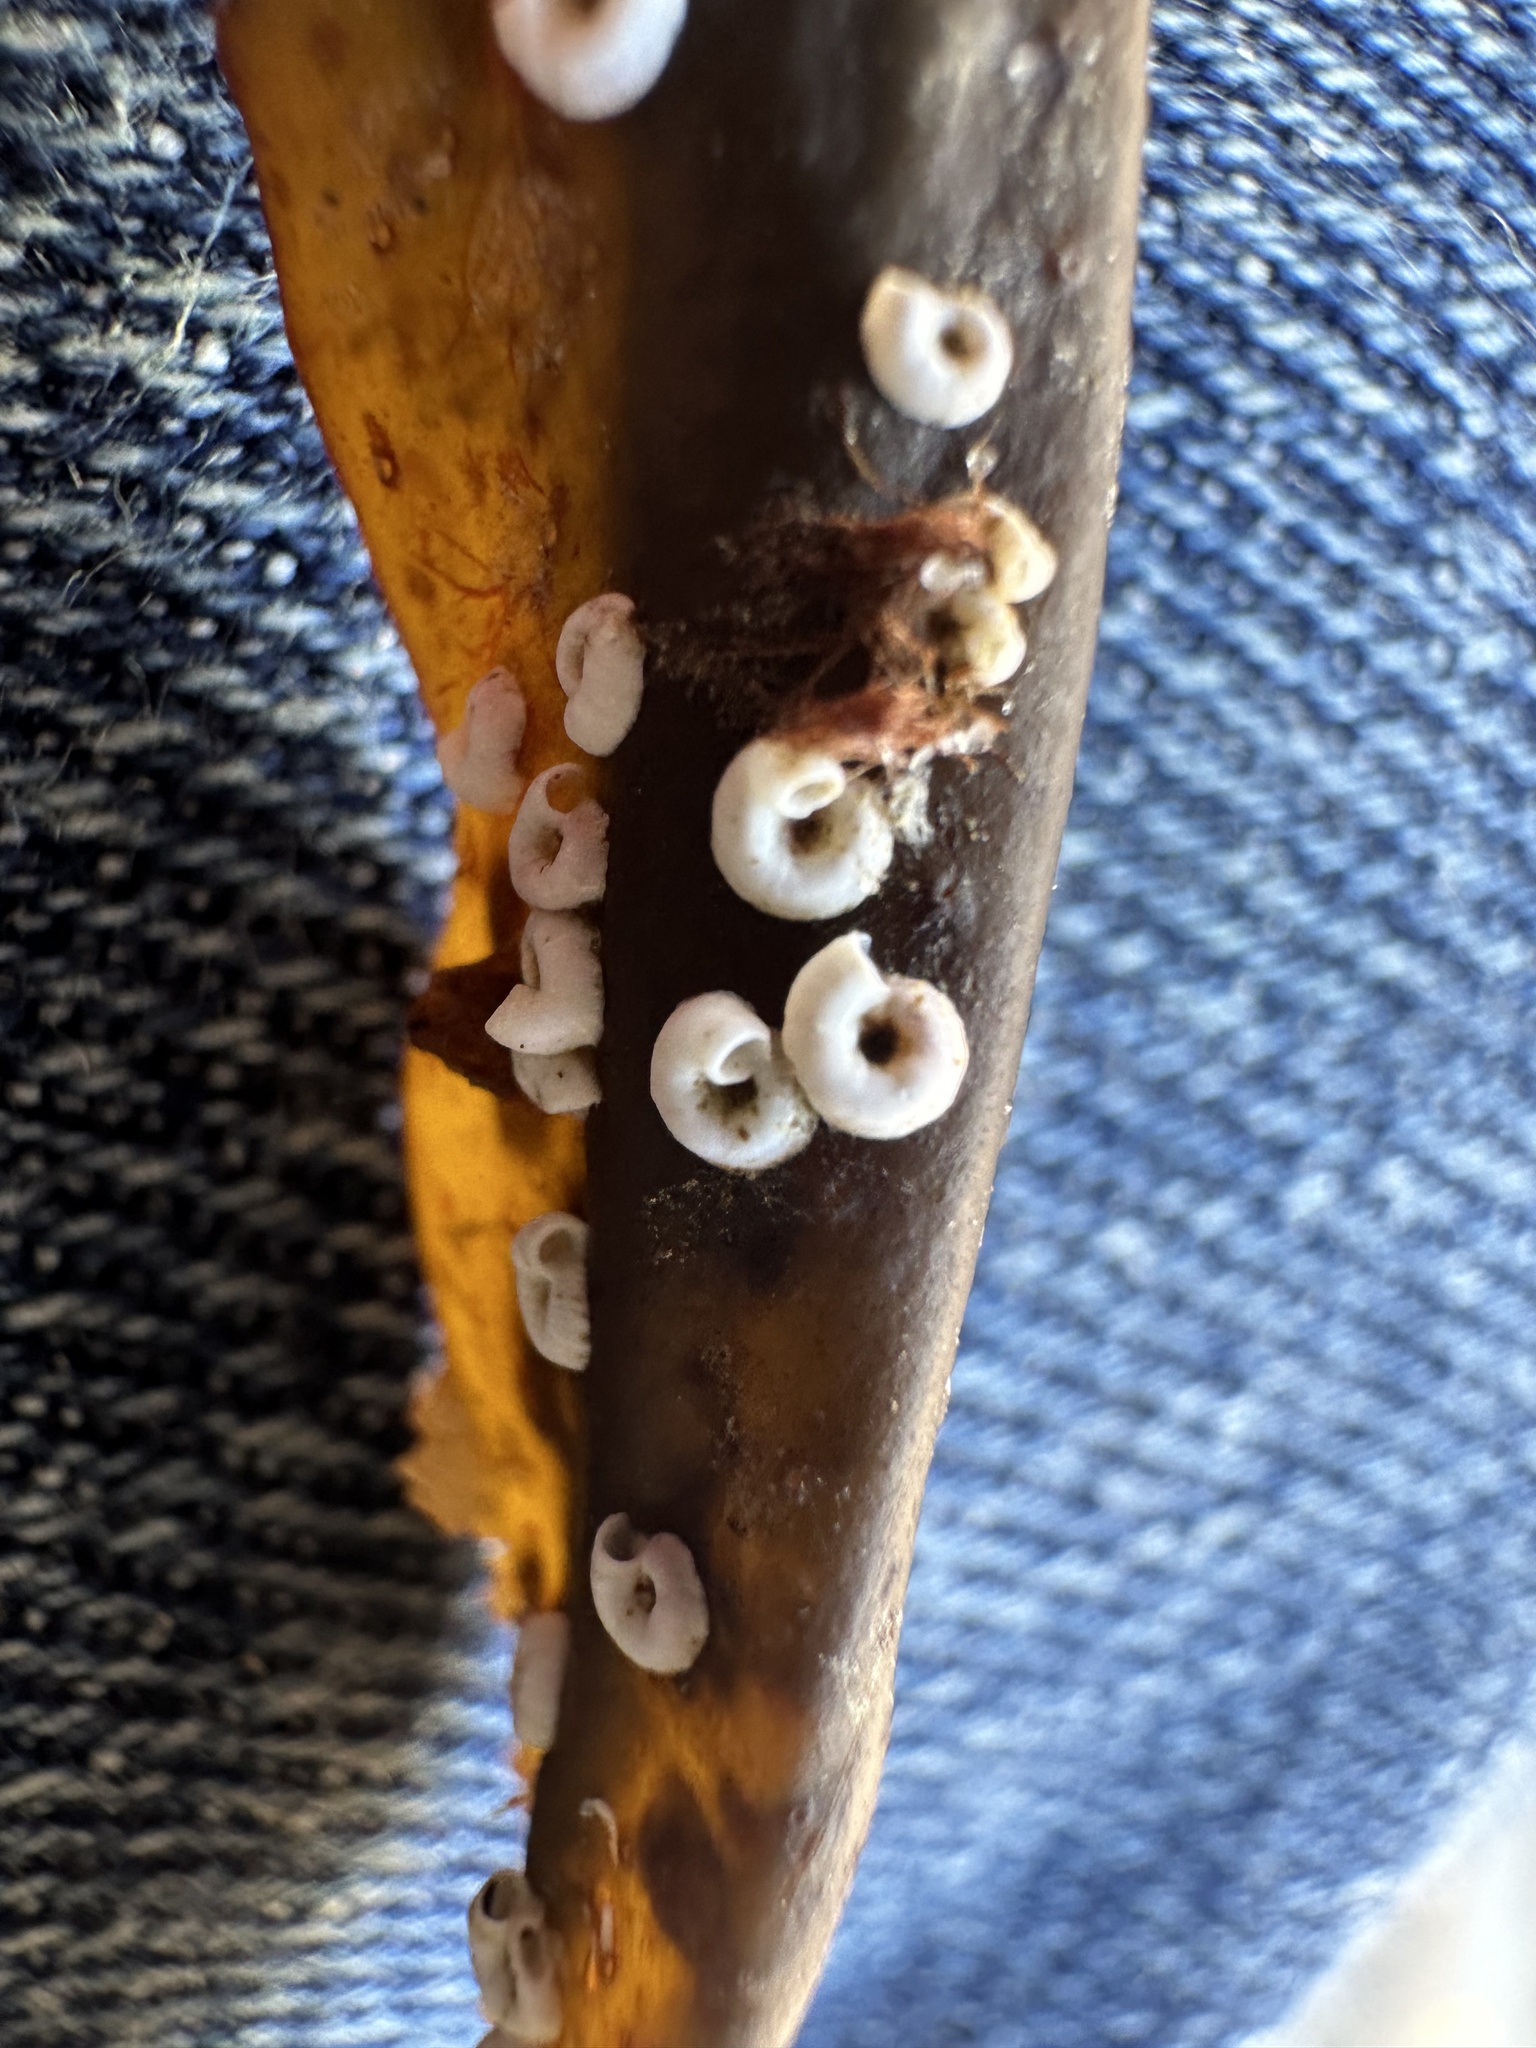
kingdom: Animalia
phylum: Annelida
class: Polychaeta
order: Sabellida
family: Serpulidae
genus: Spirorbis
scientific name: Spirorbis spirorbis
